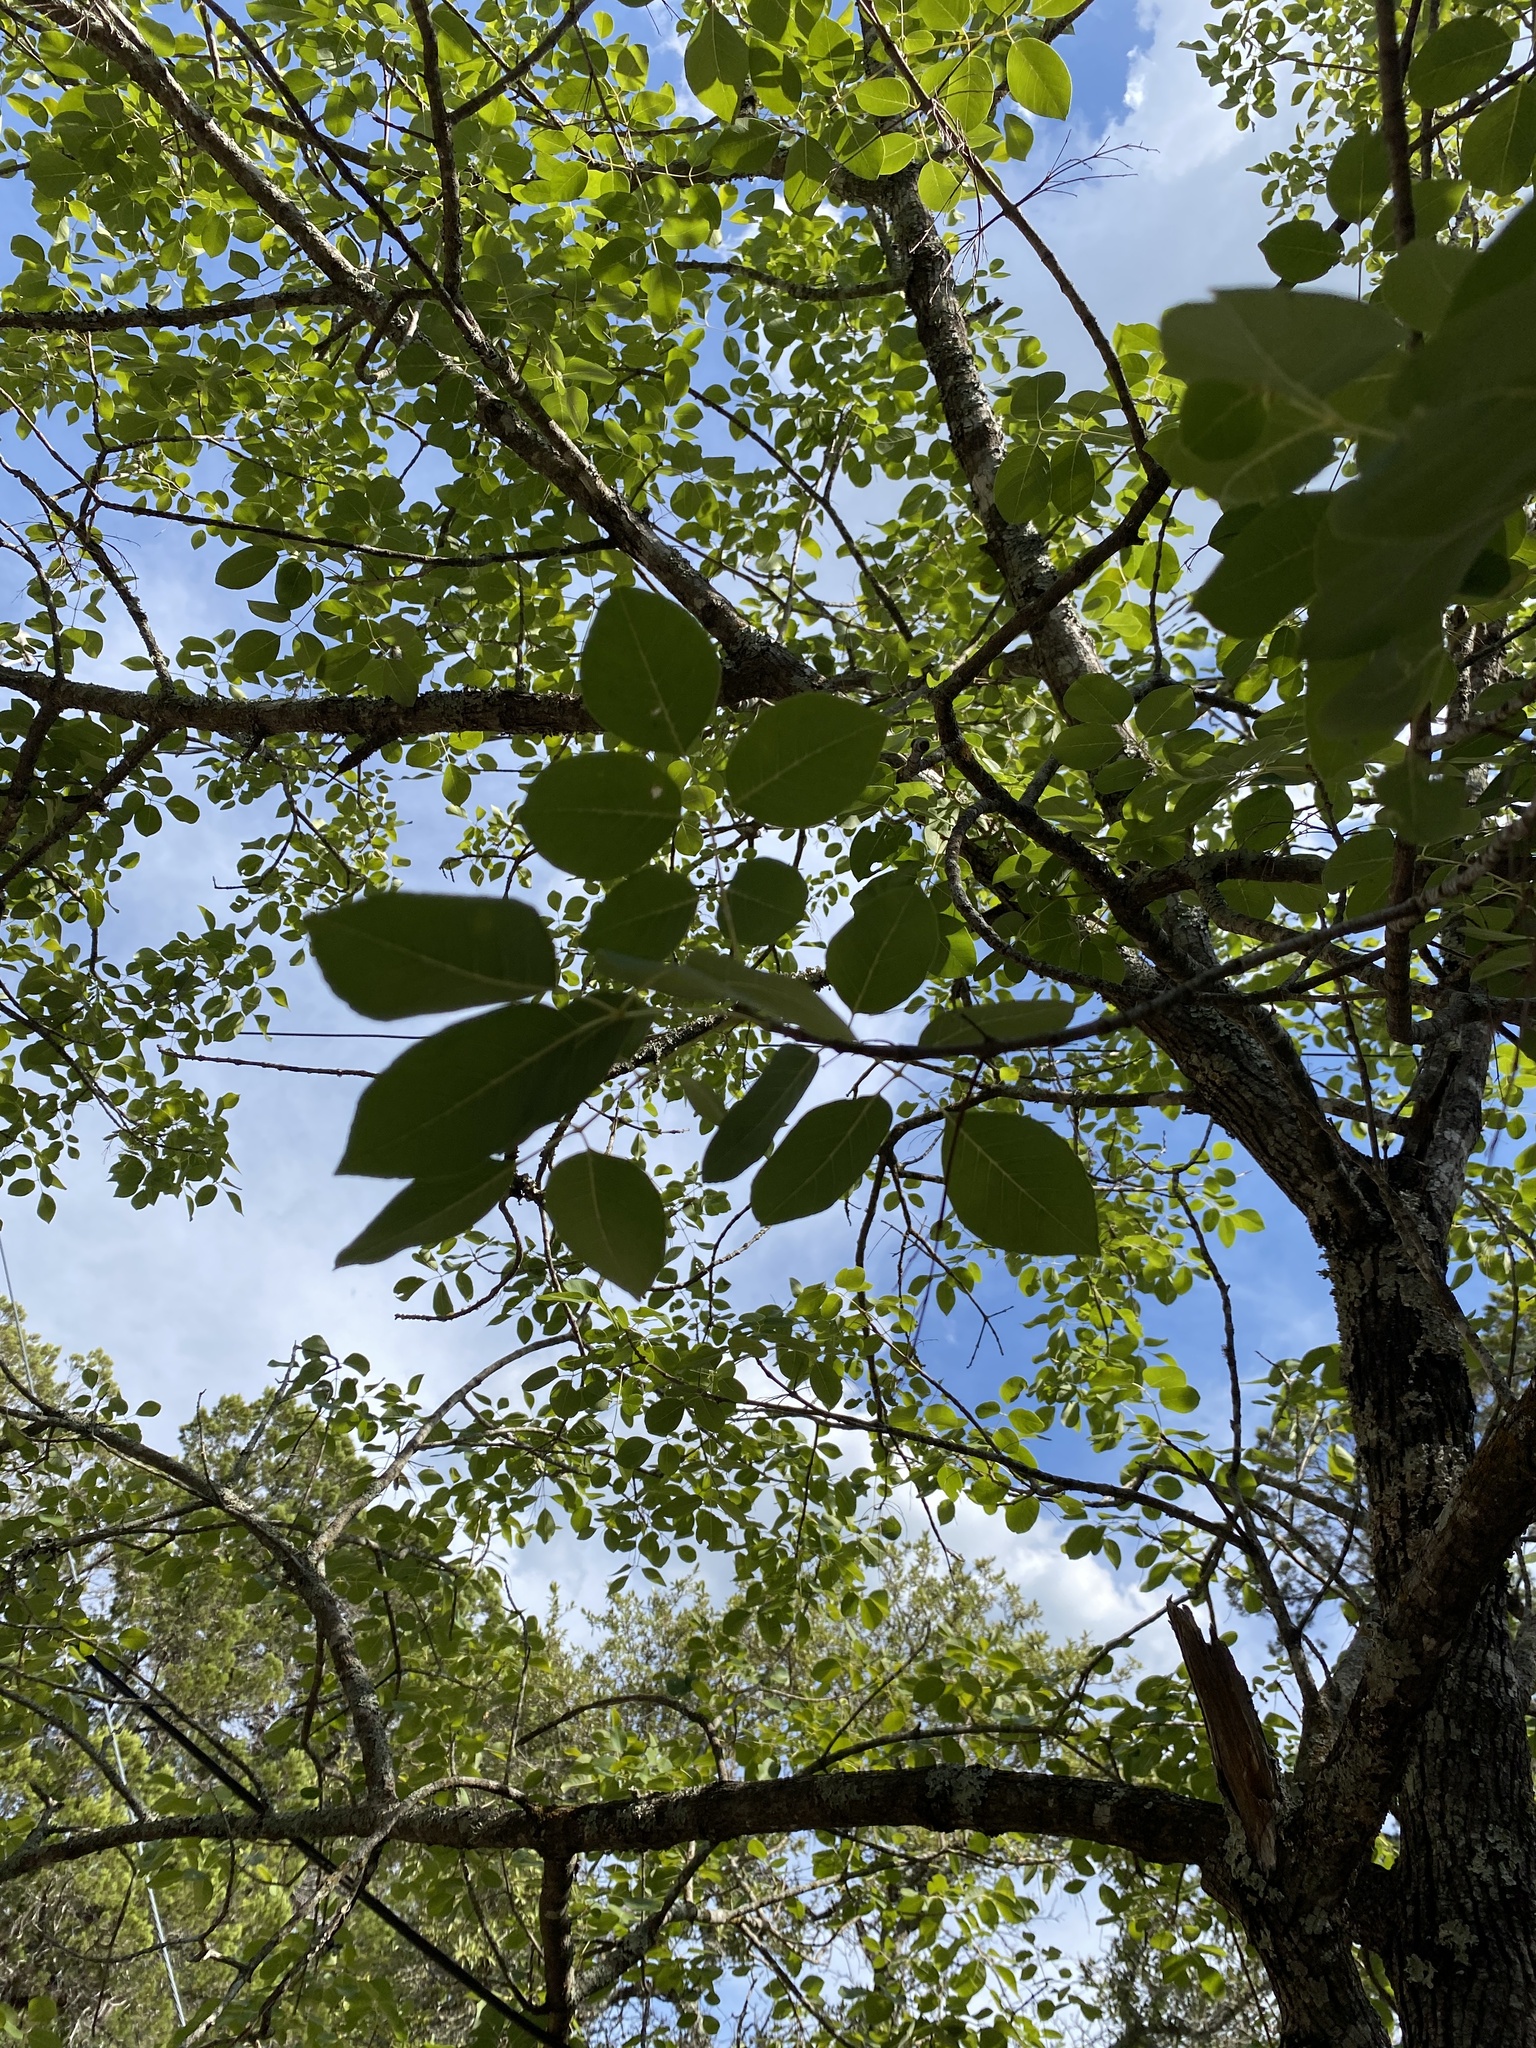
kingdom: Plantae
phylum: Tracheophyta
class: Magnoliopsida
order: Lamiales
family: Oleaceae
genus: Fraxinus
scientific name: Fraxinus albicans
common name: Texas ash
